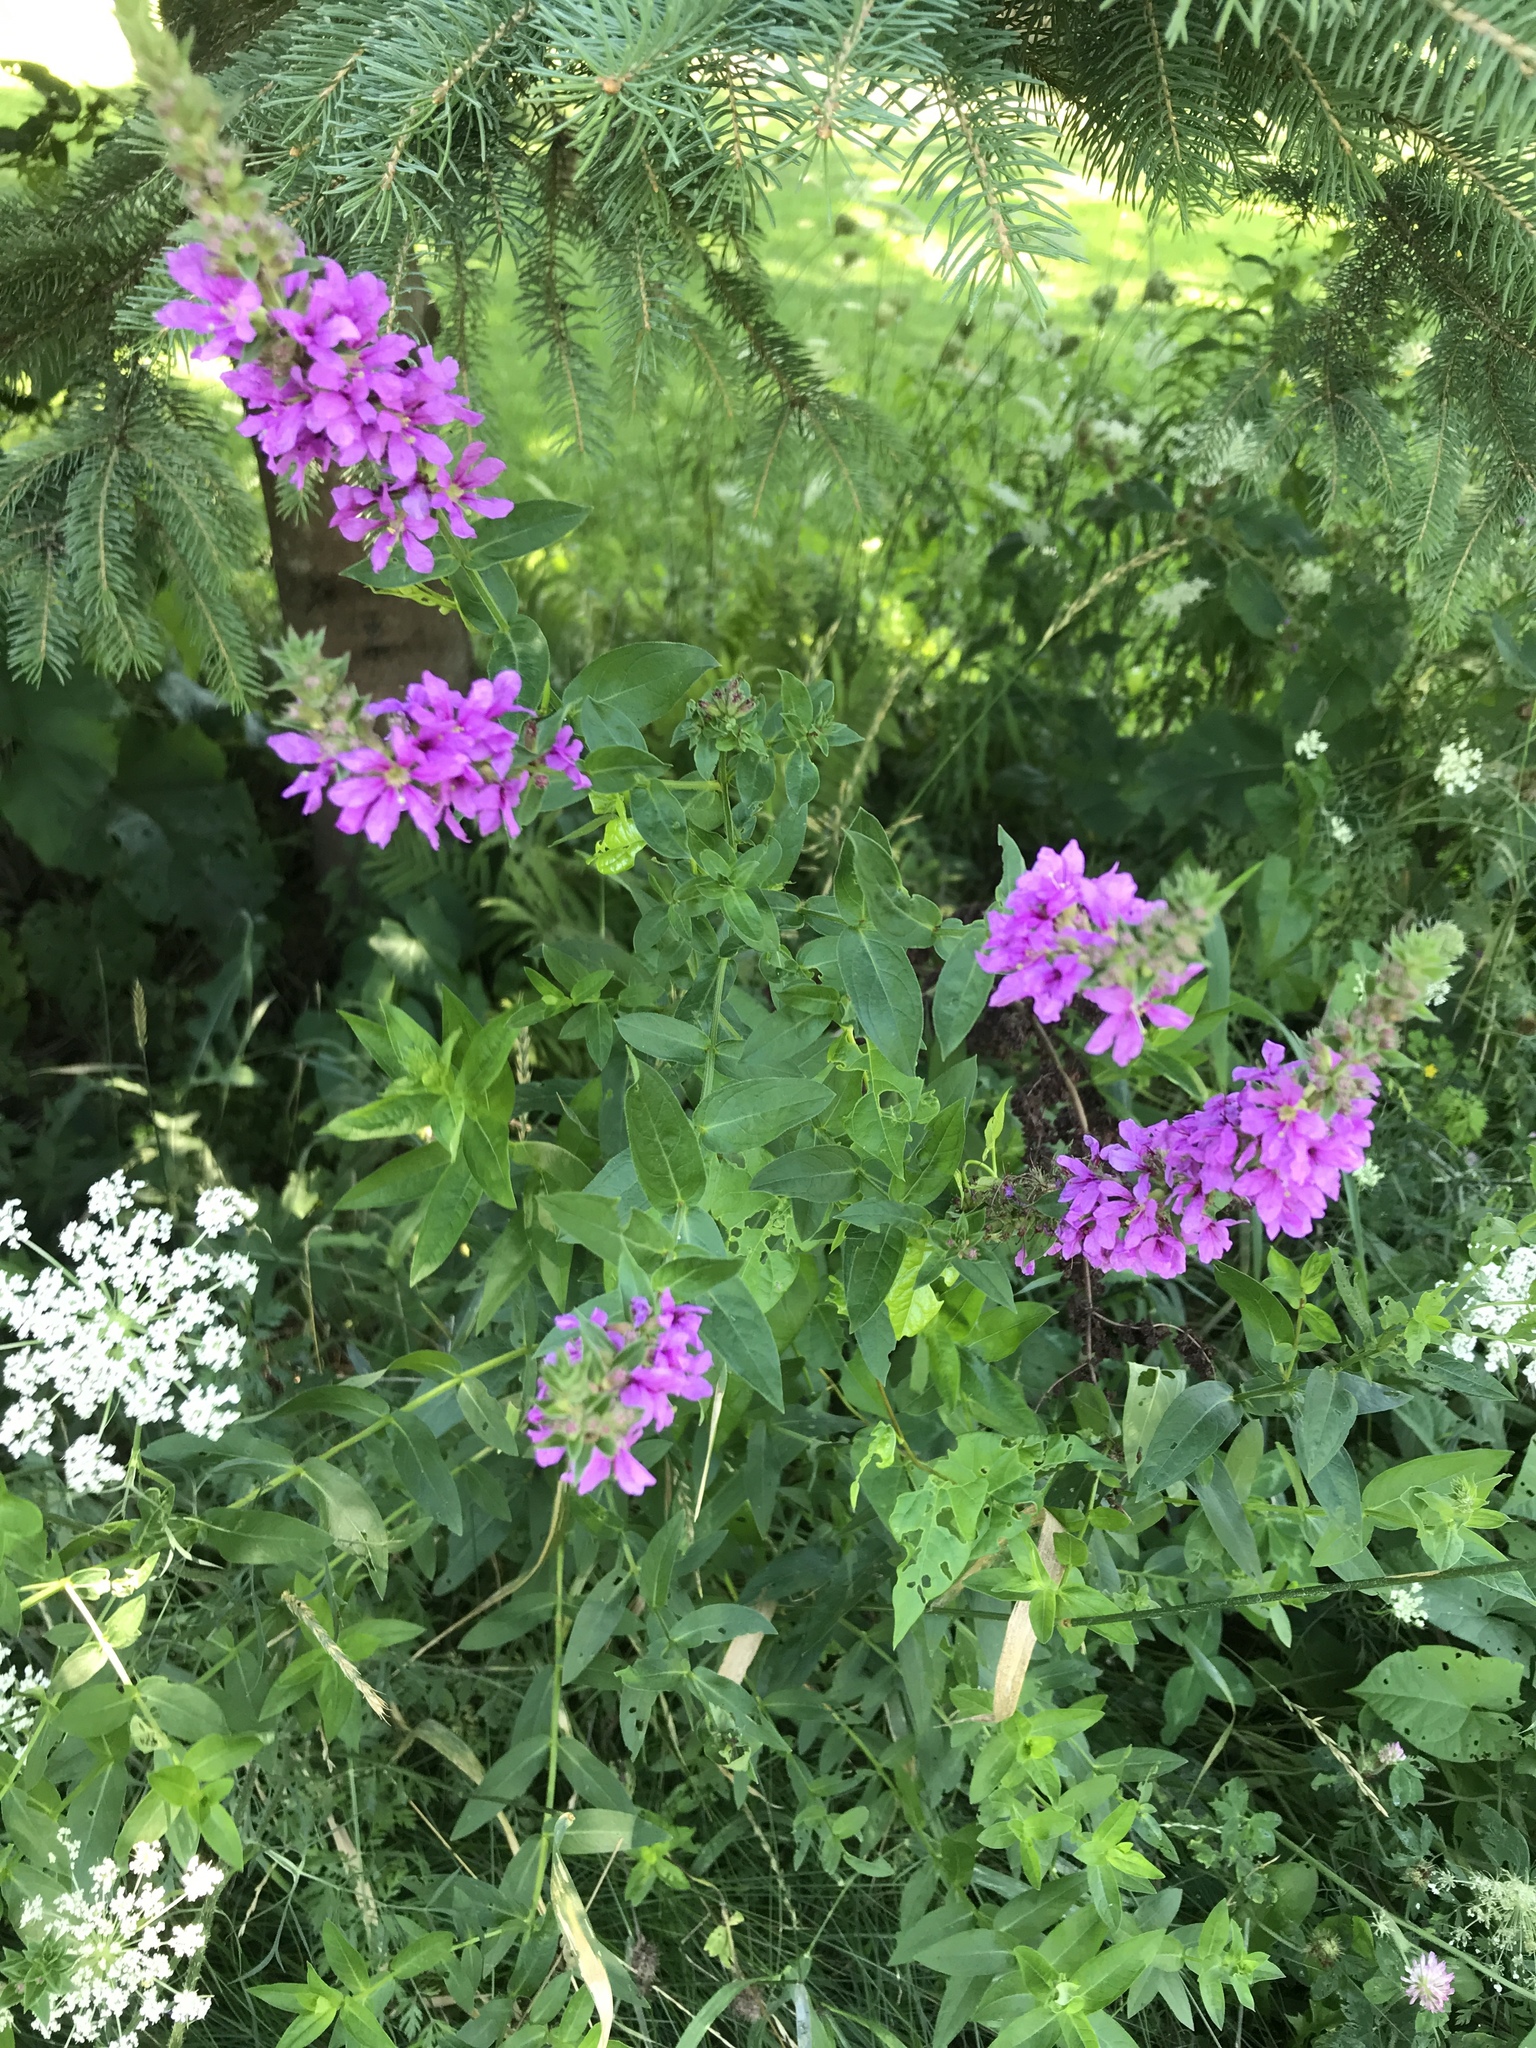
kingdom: Plantae
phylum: Tracheophyta
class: Magnoliopsida
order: Myrtales
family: Lythraceae
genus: Lythrum
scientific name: Lythrum salicaria
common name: Purple loosestrife
